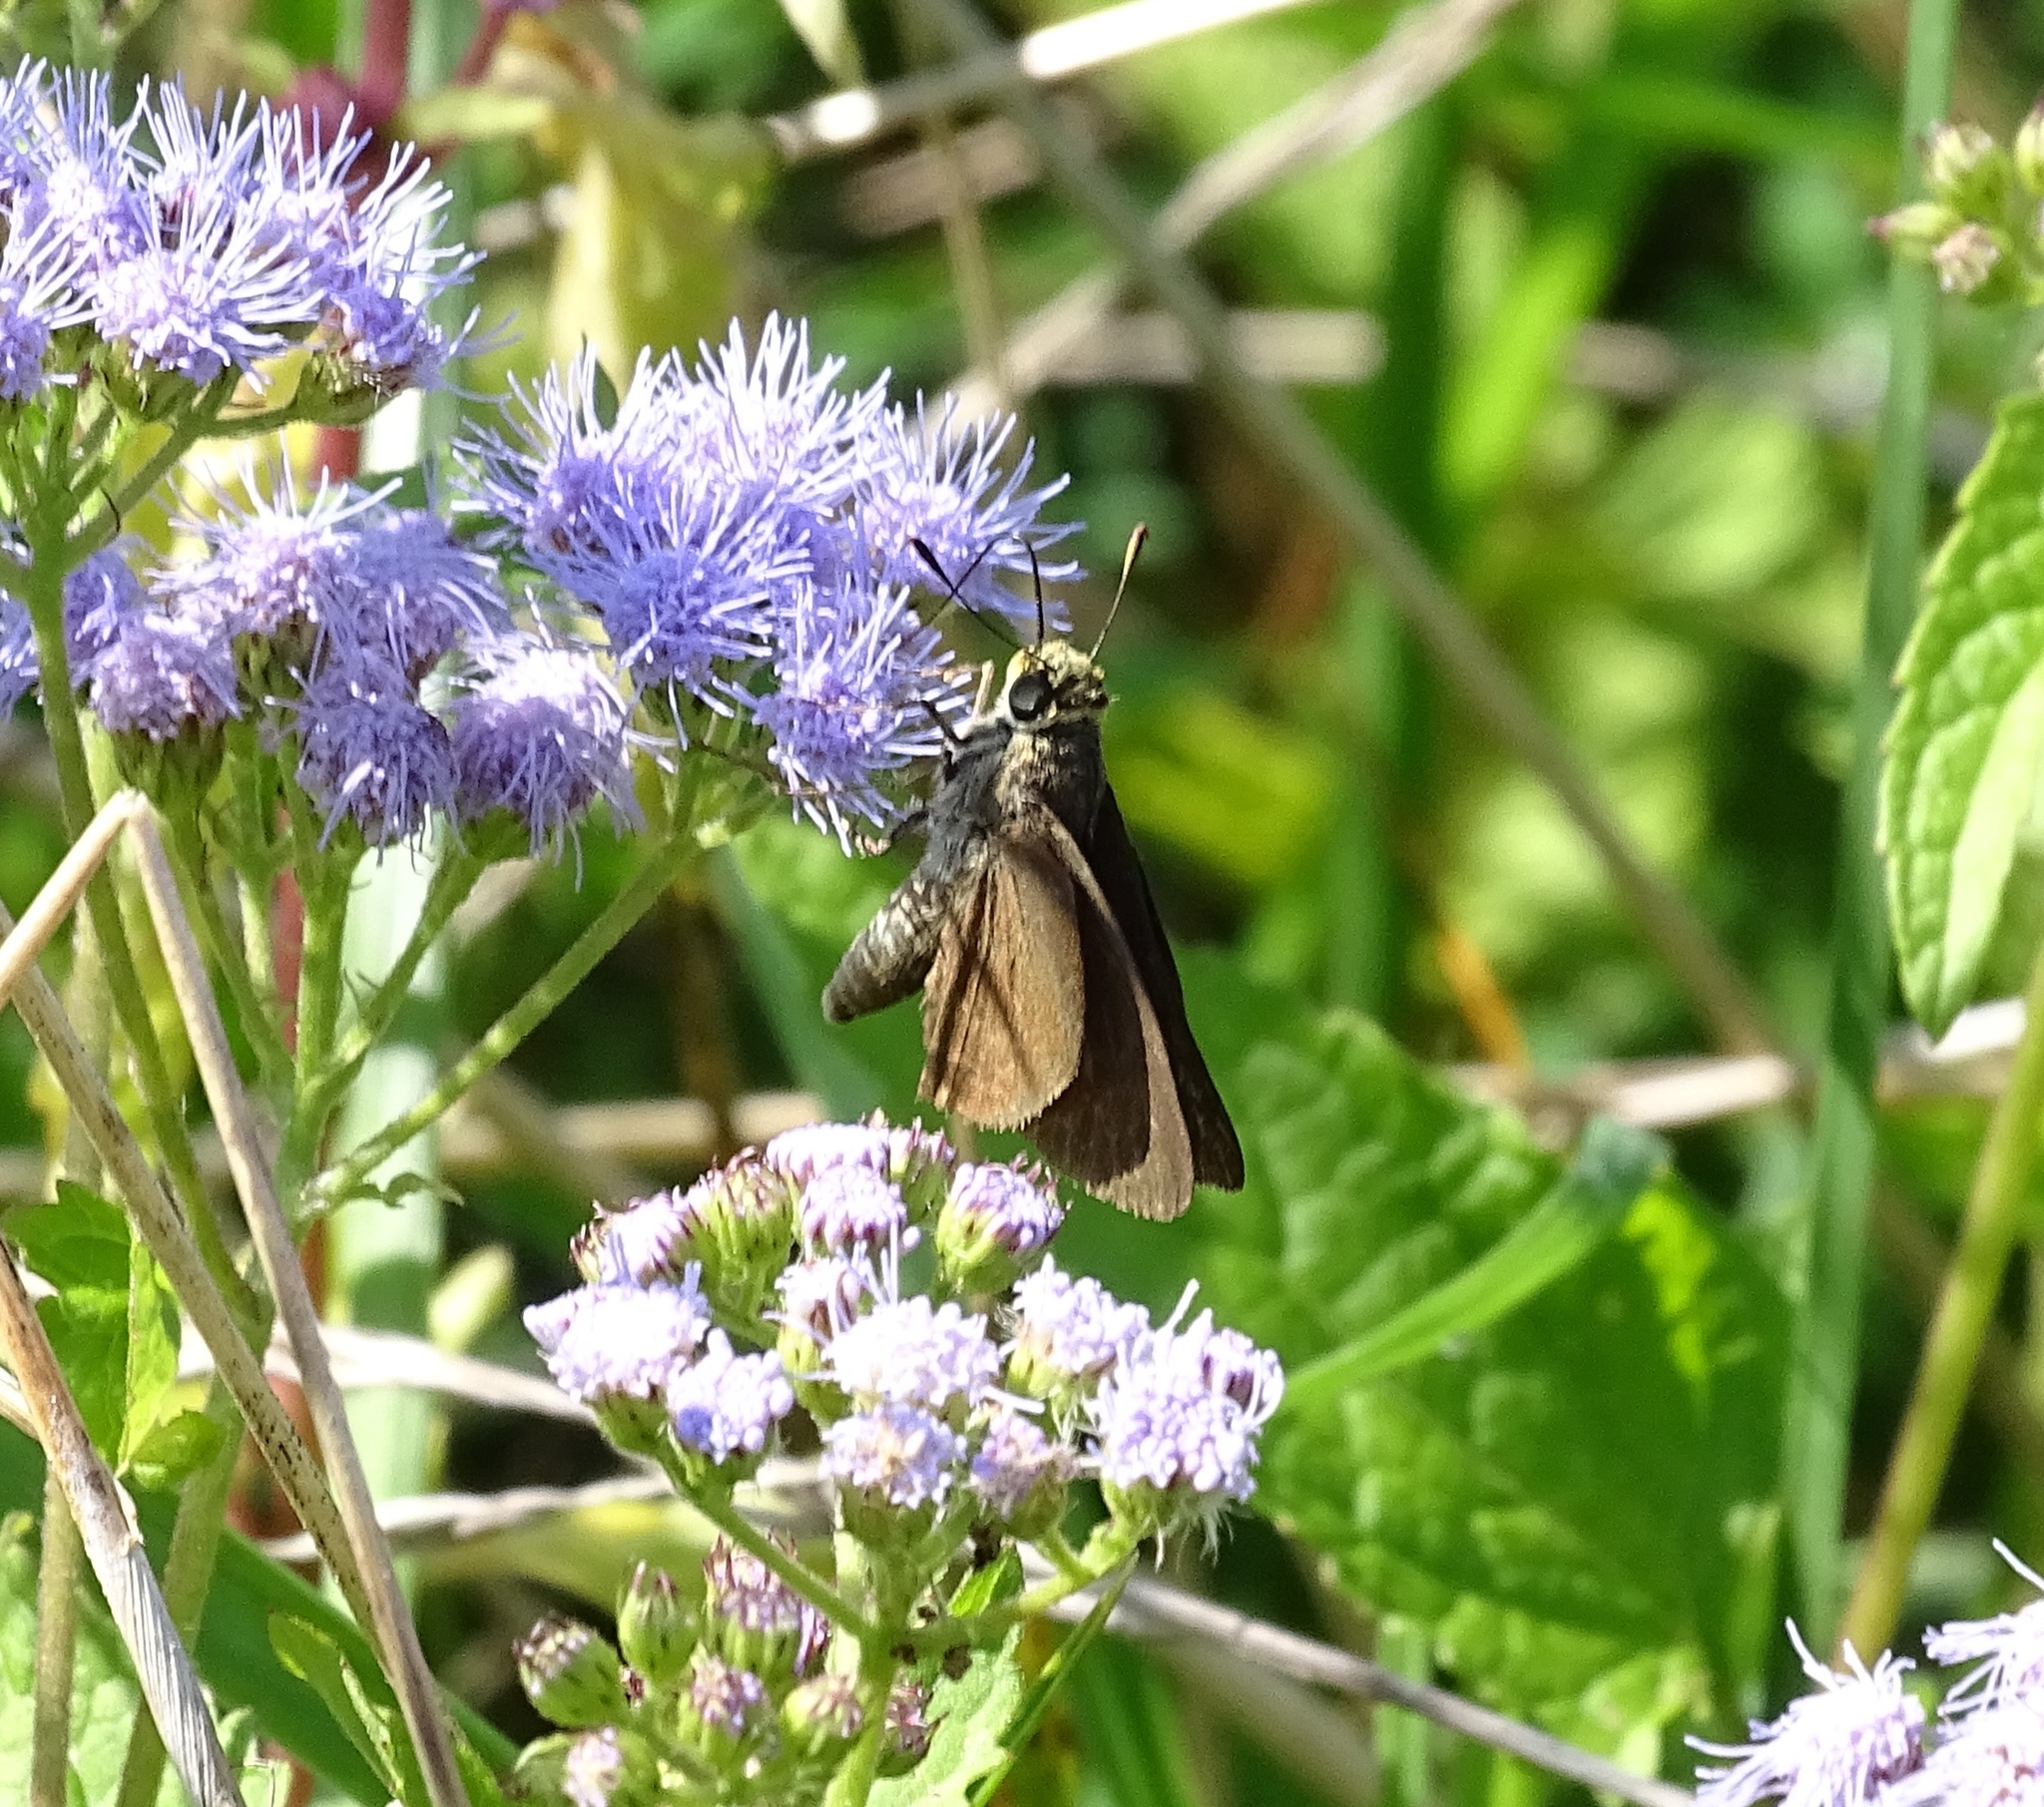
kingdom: Animalia
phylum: Arthropoda
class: Insecta
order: Lepidoptera
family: Hesperiidae
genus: Euphyes
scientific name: Euphyes vestris
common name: Dun skipper
